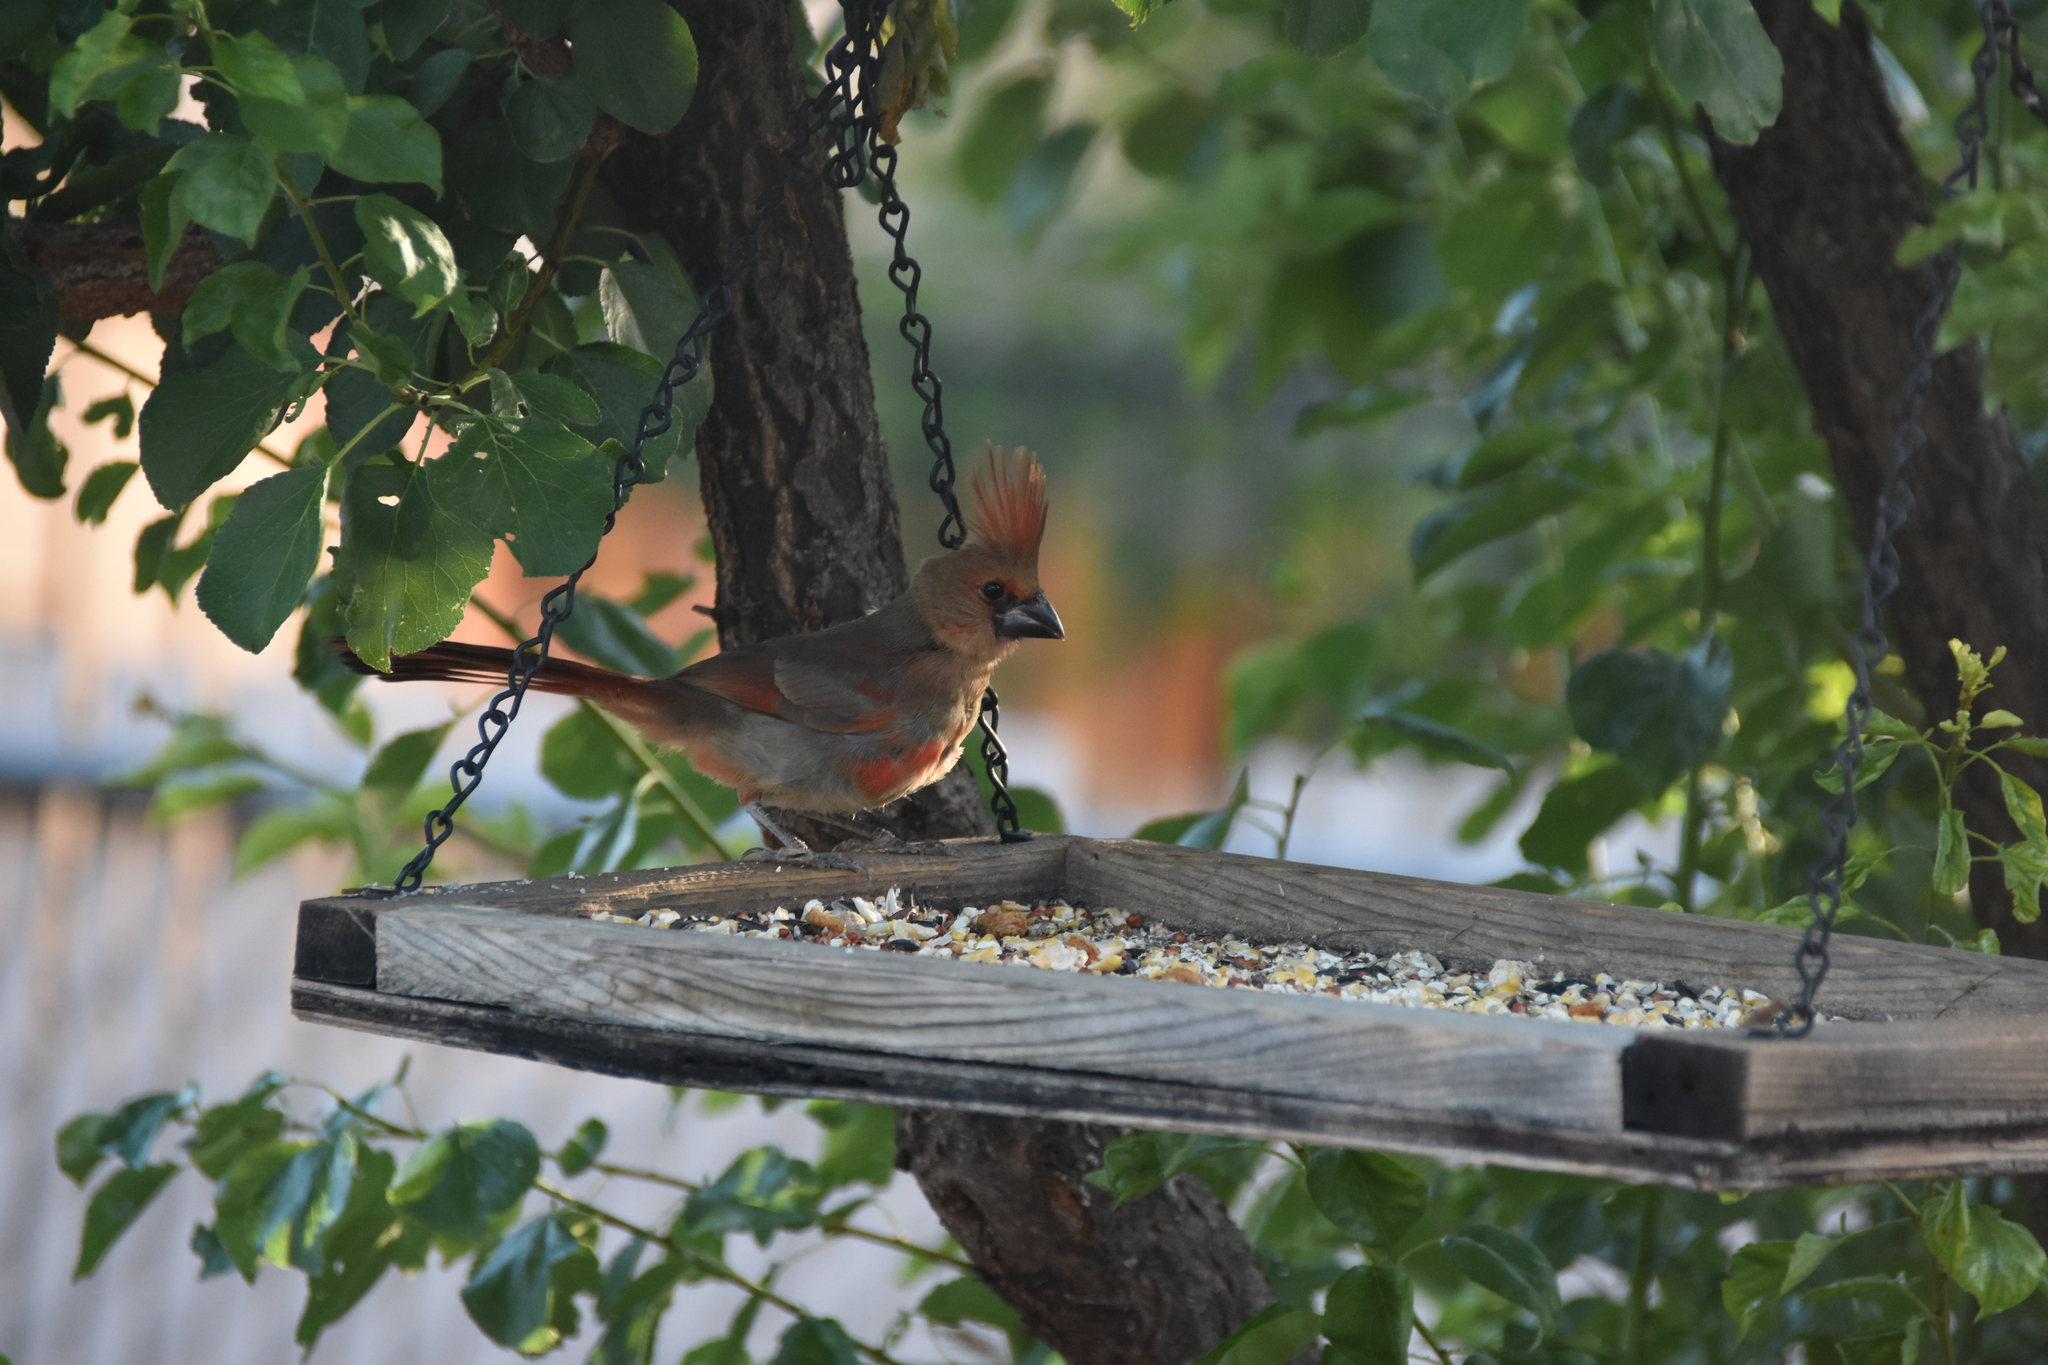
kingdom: Animalia
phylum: Chordata
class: Aves
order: Passeriformes
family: Cardinalidae
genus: Cardinalis
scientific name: Cardinalis cardinalis
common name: Northern cardinal
